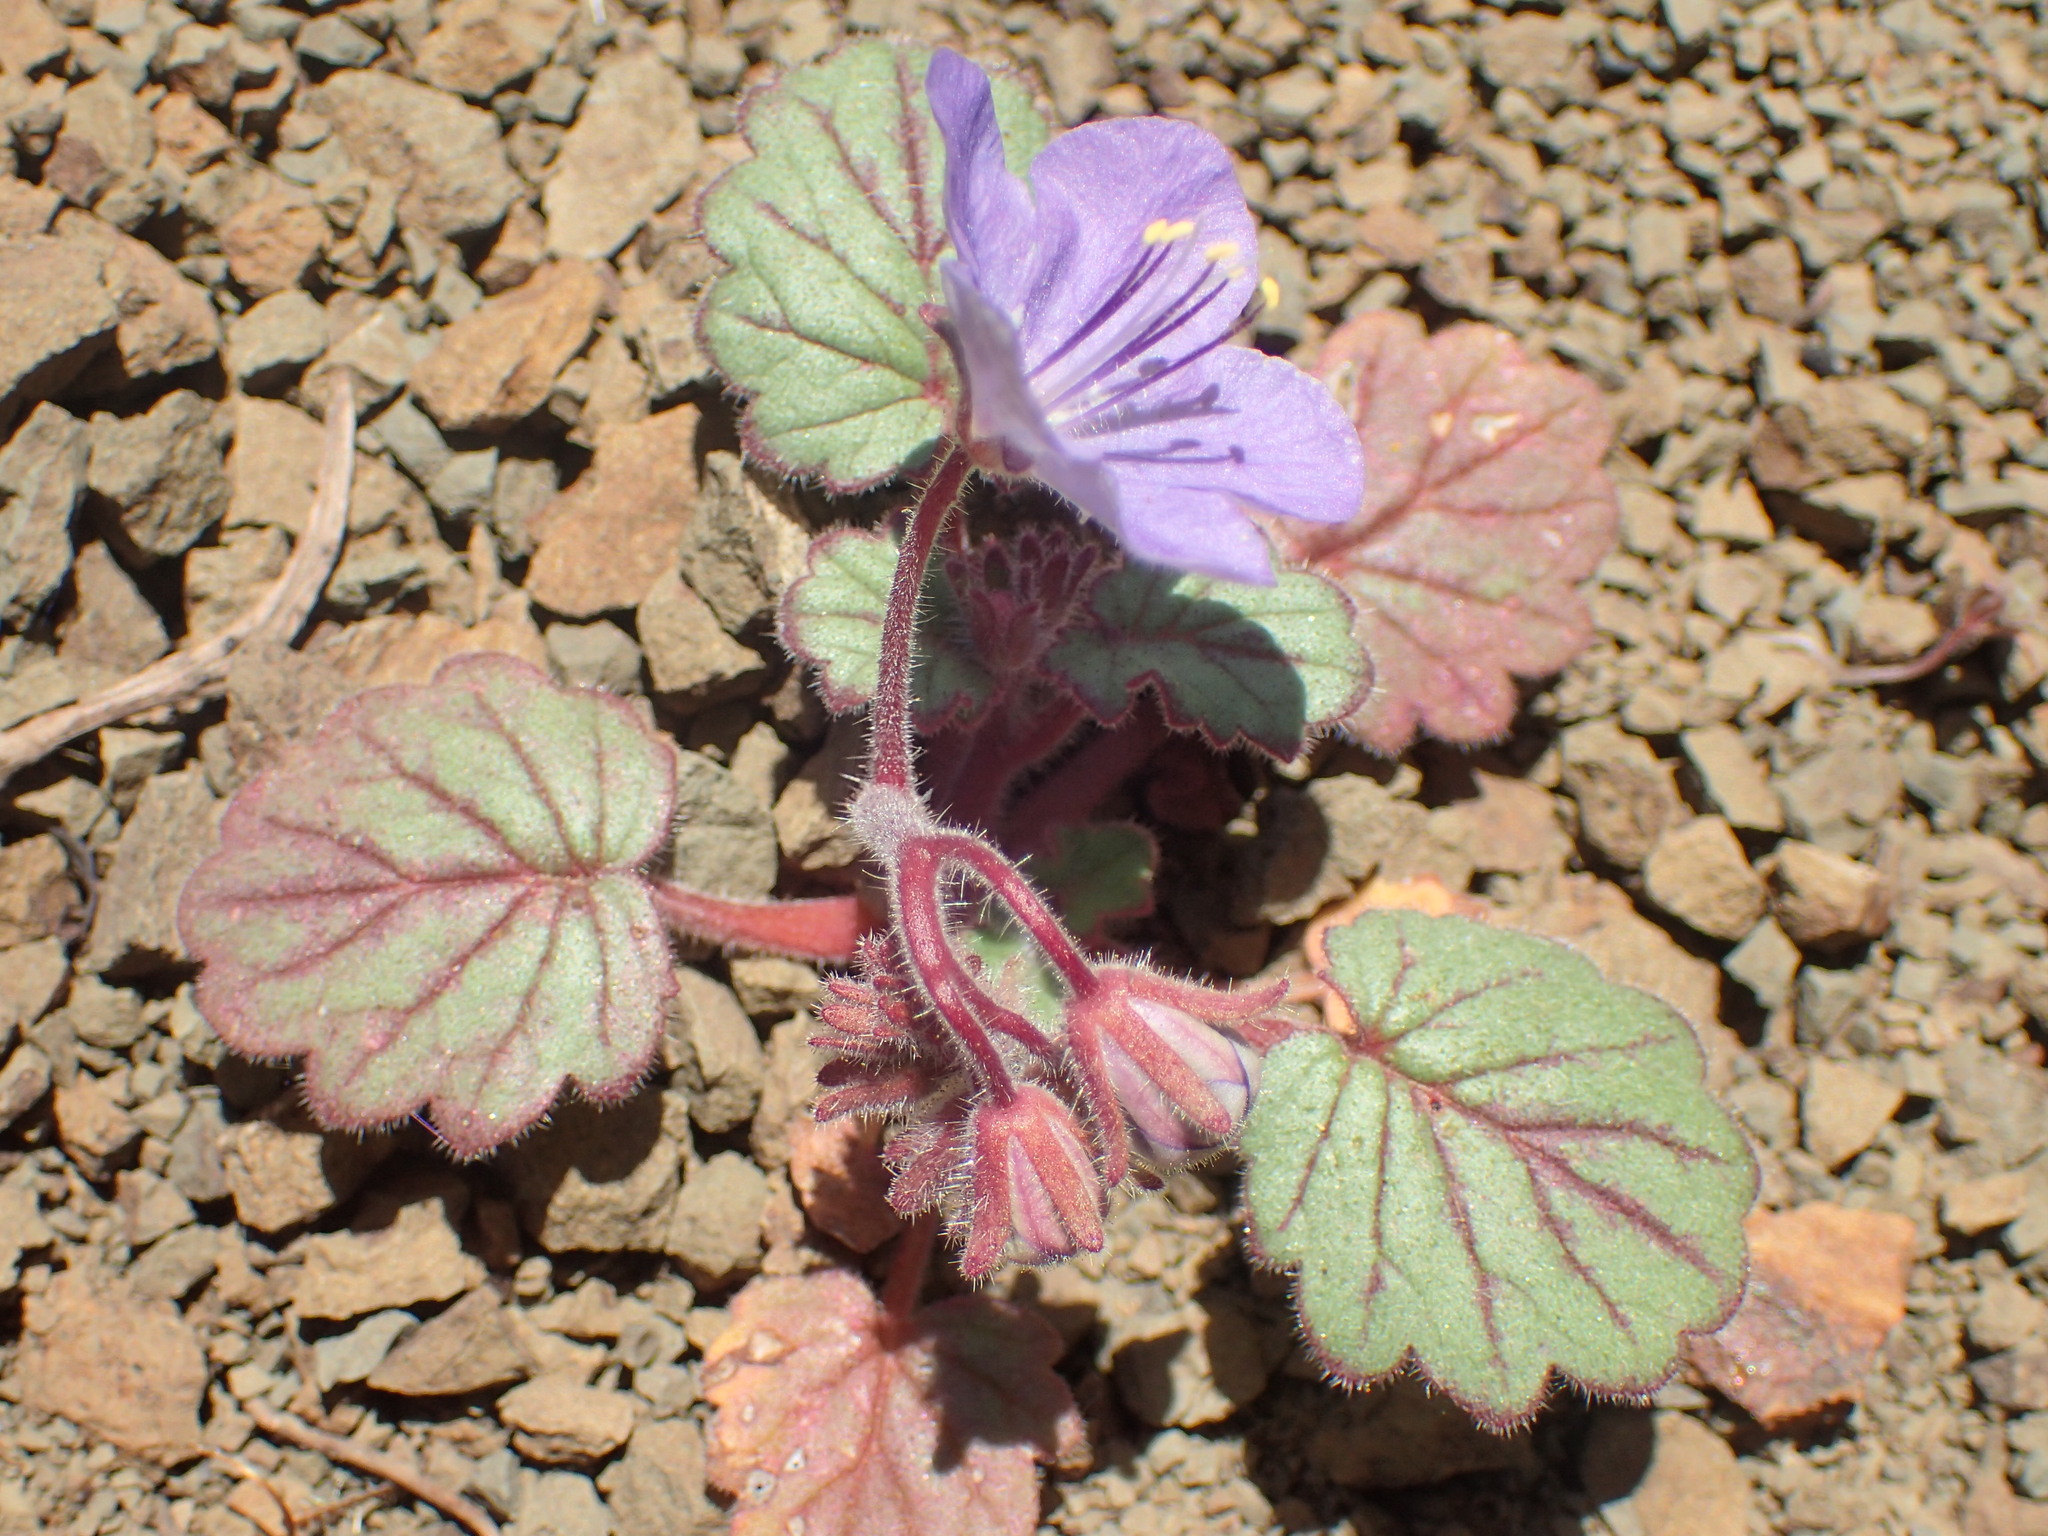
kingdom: Plantae
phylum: Tracheophyta
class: Magnoliopsida
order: Boraginales
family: Hydrophyllaceae
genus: Phacelia
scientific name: Phacelia longipes
